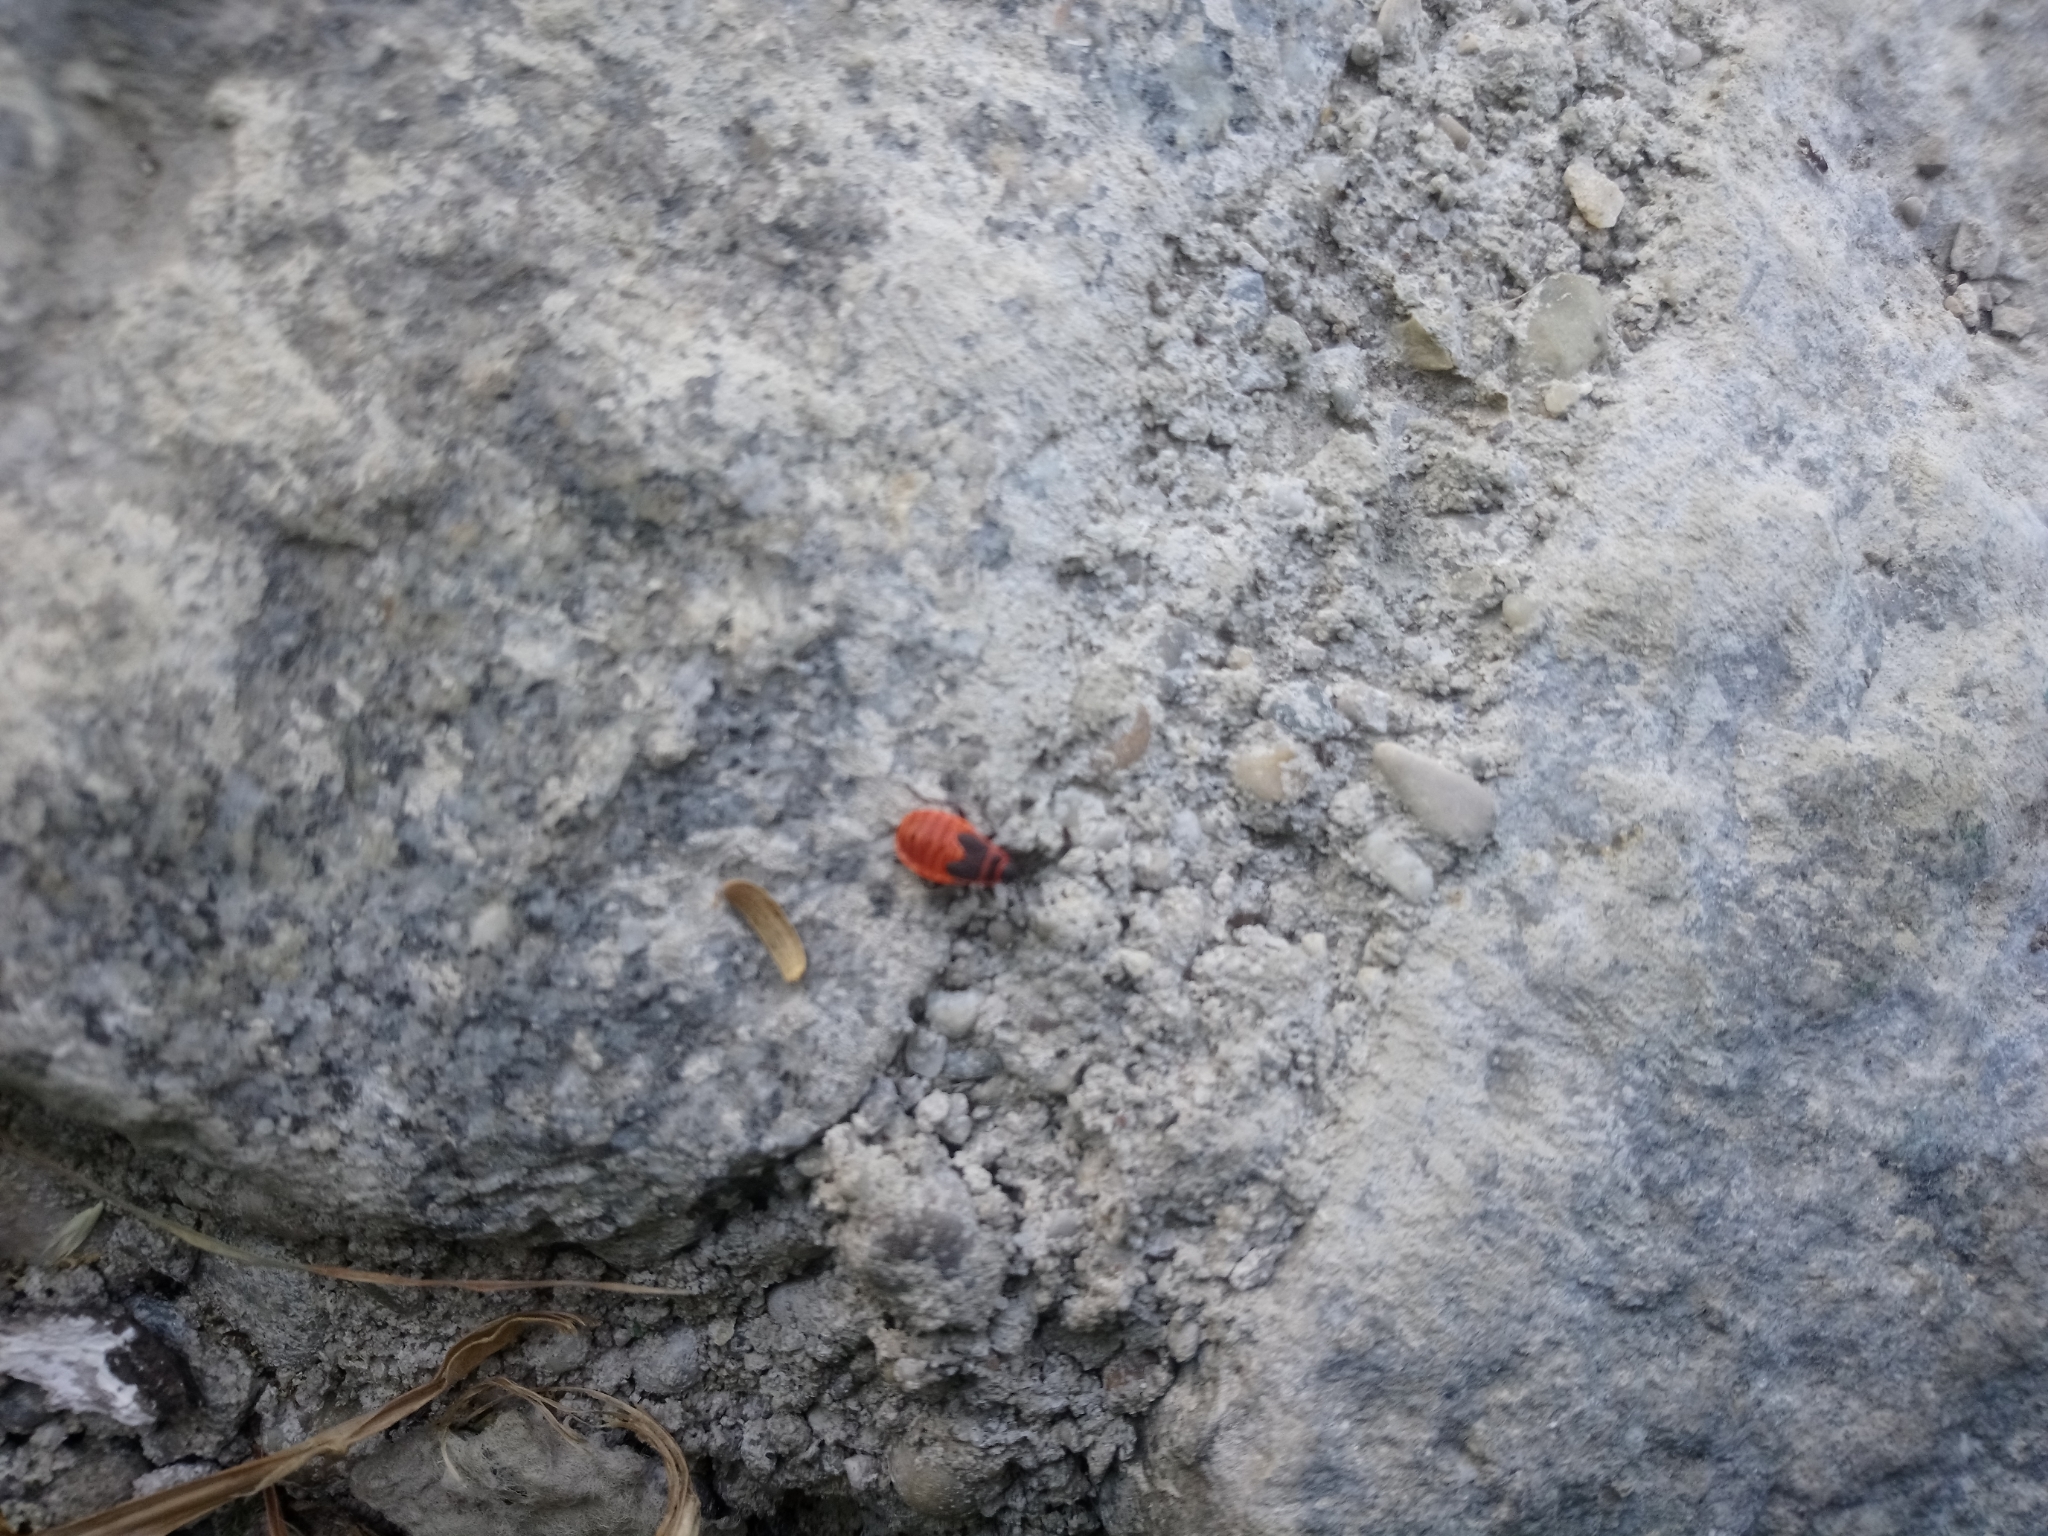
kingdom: Animalia
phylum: Arthropoda
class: Insecta
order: Hemiptera
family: Pyrrhocoridae
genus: Pyrrhocoris
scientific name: Pyrrhocoris apterus
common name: Firebug
